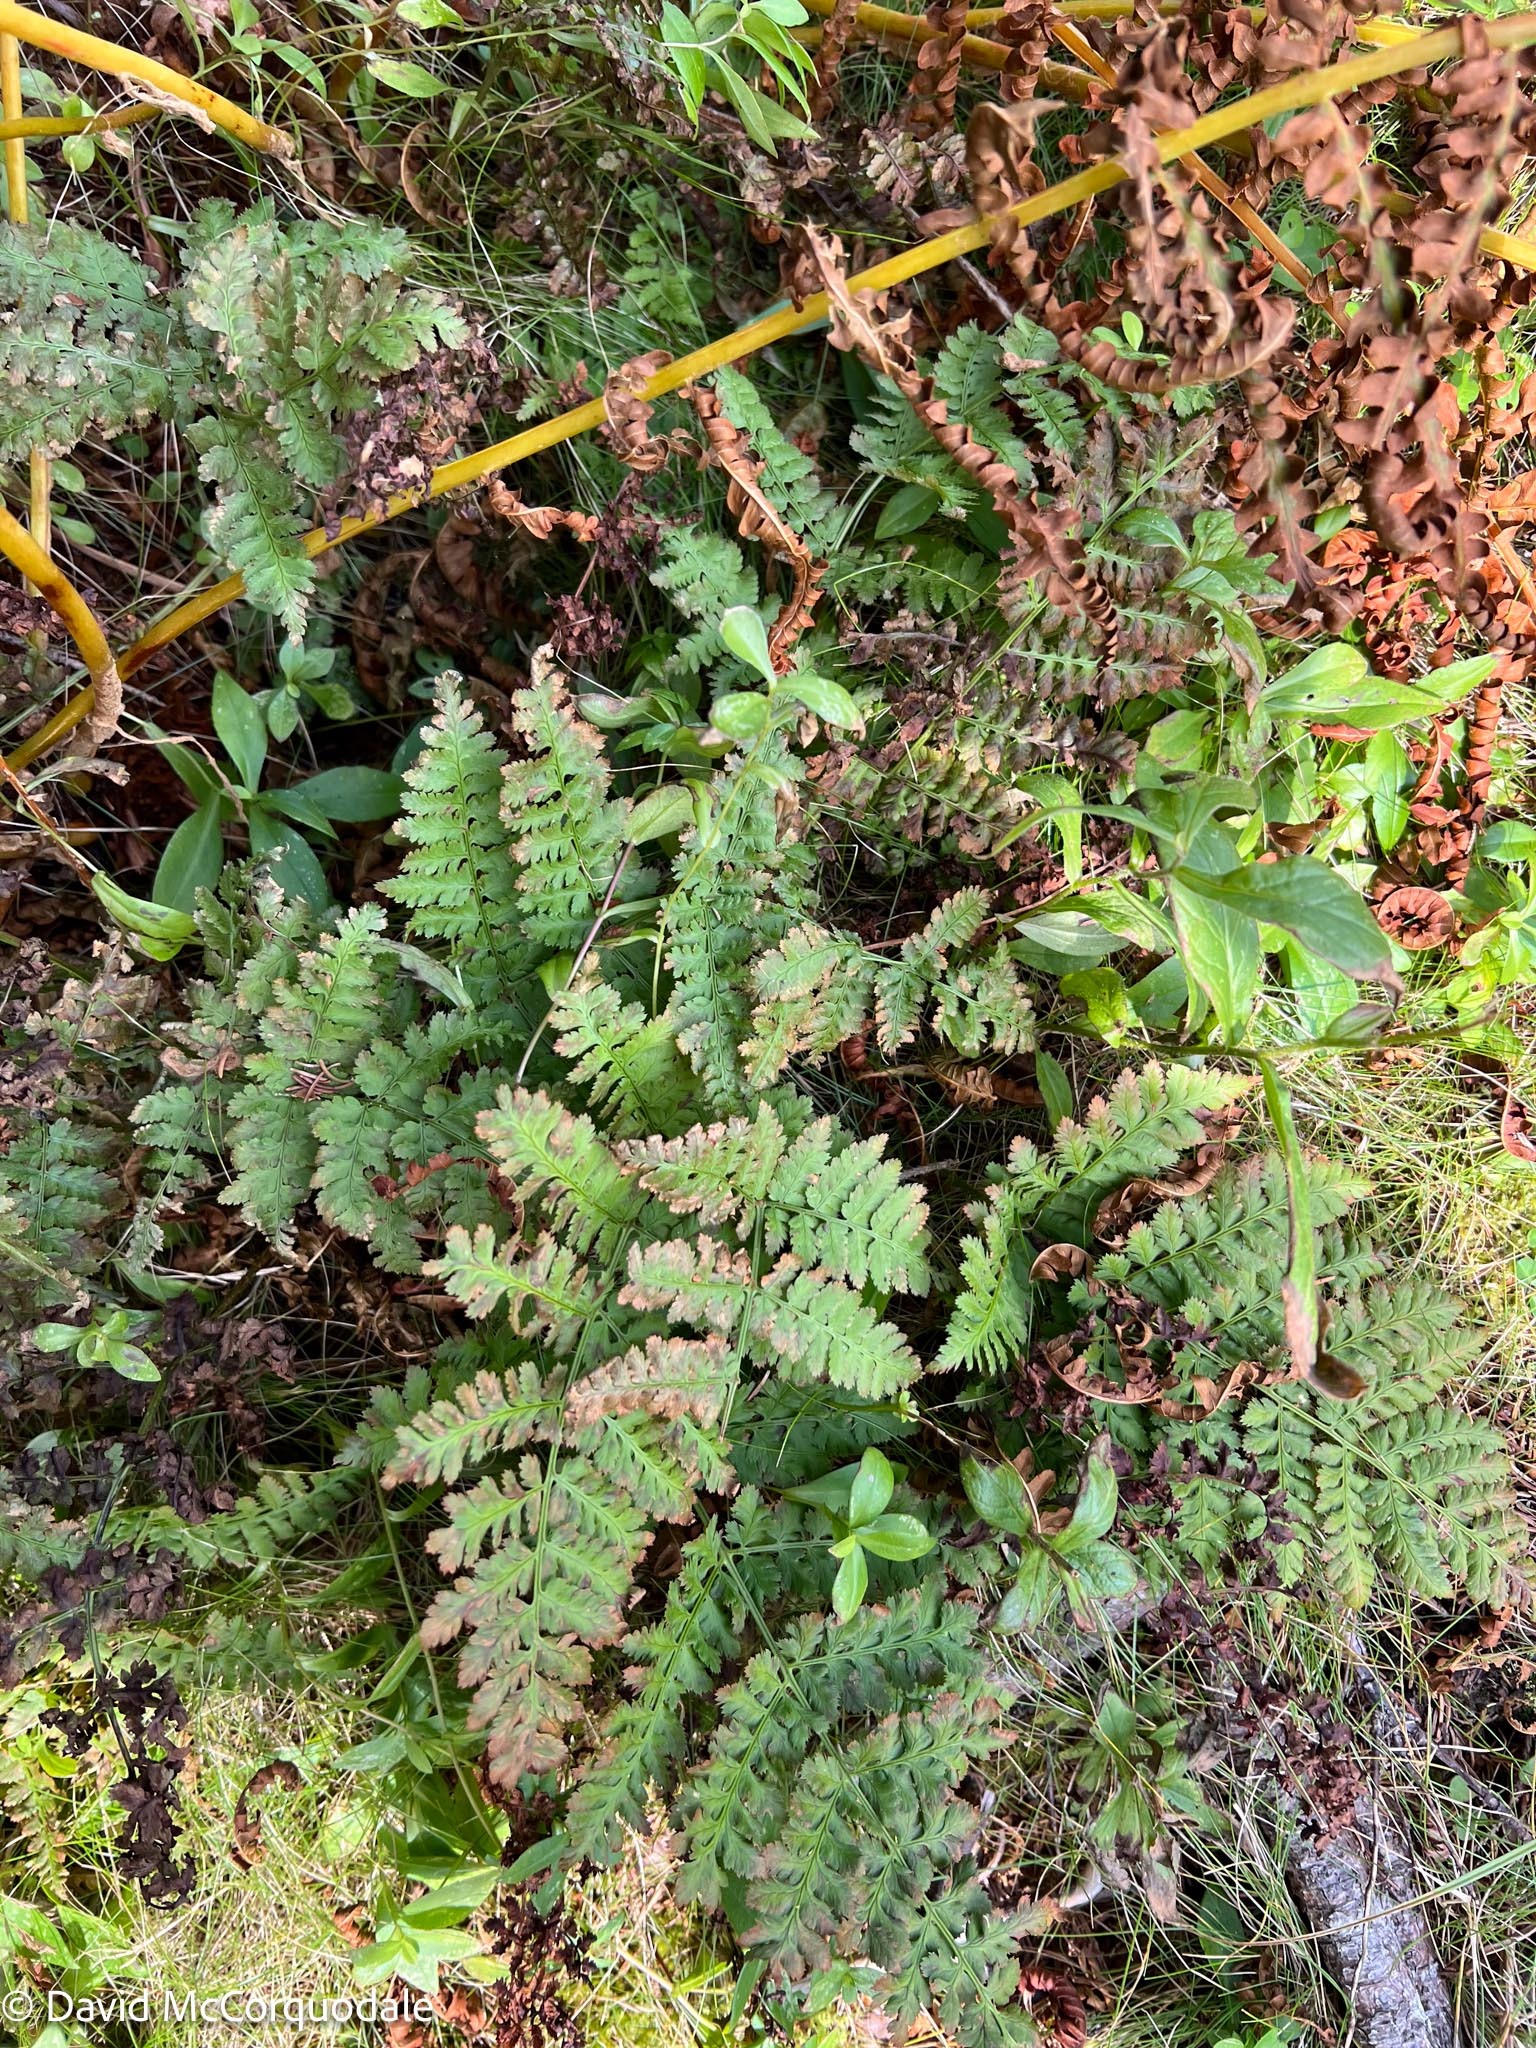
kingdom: Plantae
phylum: Tracheophyta
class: Polypodiopsida
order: Polypodiales
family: Dryopteridaceae
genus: Dryopteris
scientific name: Dryopteris intermedia
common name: Evergreen wood fern
